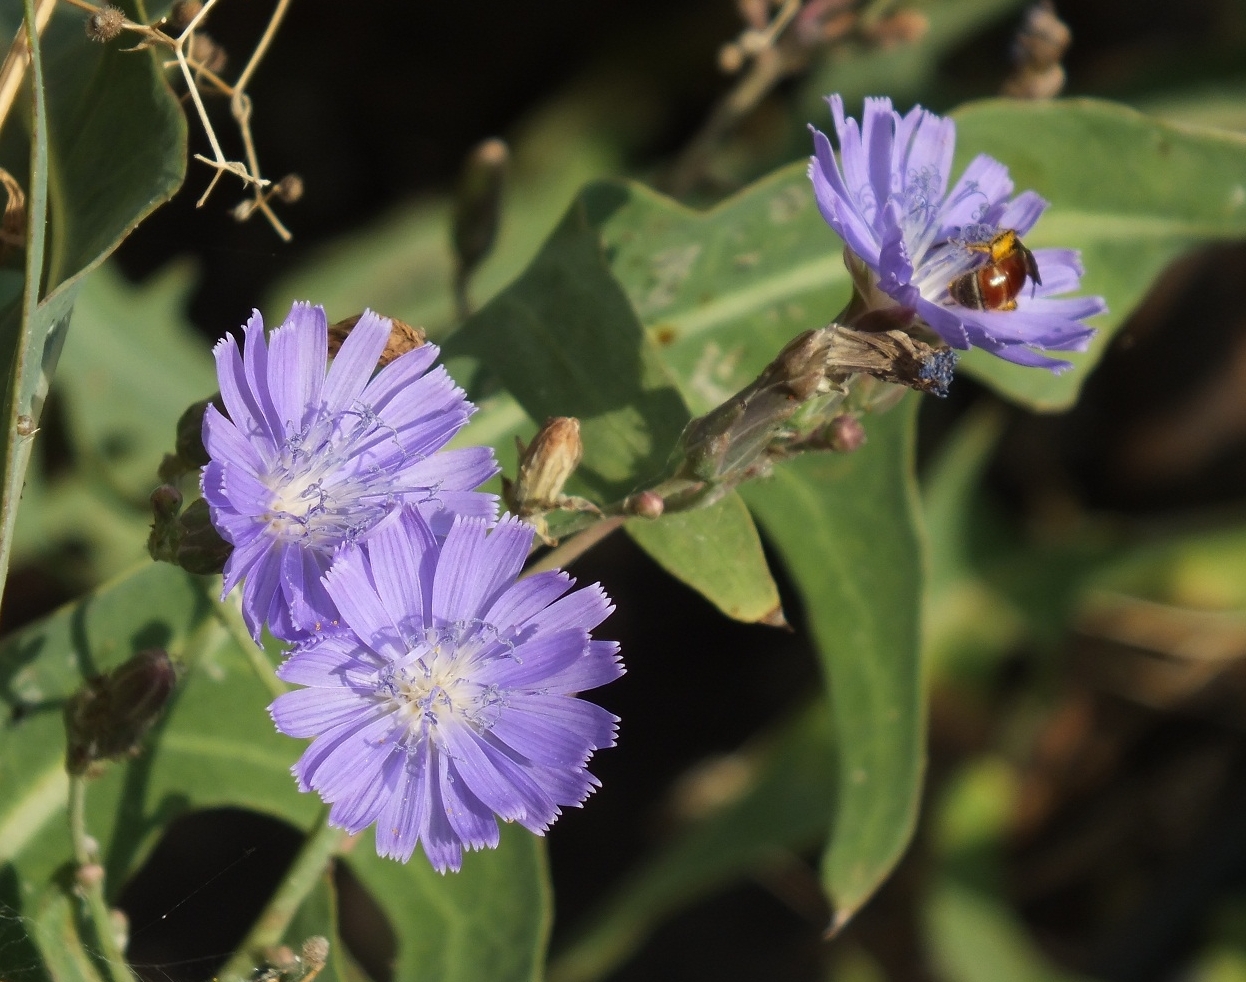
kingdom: Plantae
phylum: Tracheophyta
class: Magnoliopsida
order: Asterales
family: Asteraceae
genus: Lactuca
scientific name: Lactuca tatarica
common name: Blue lettuce
